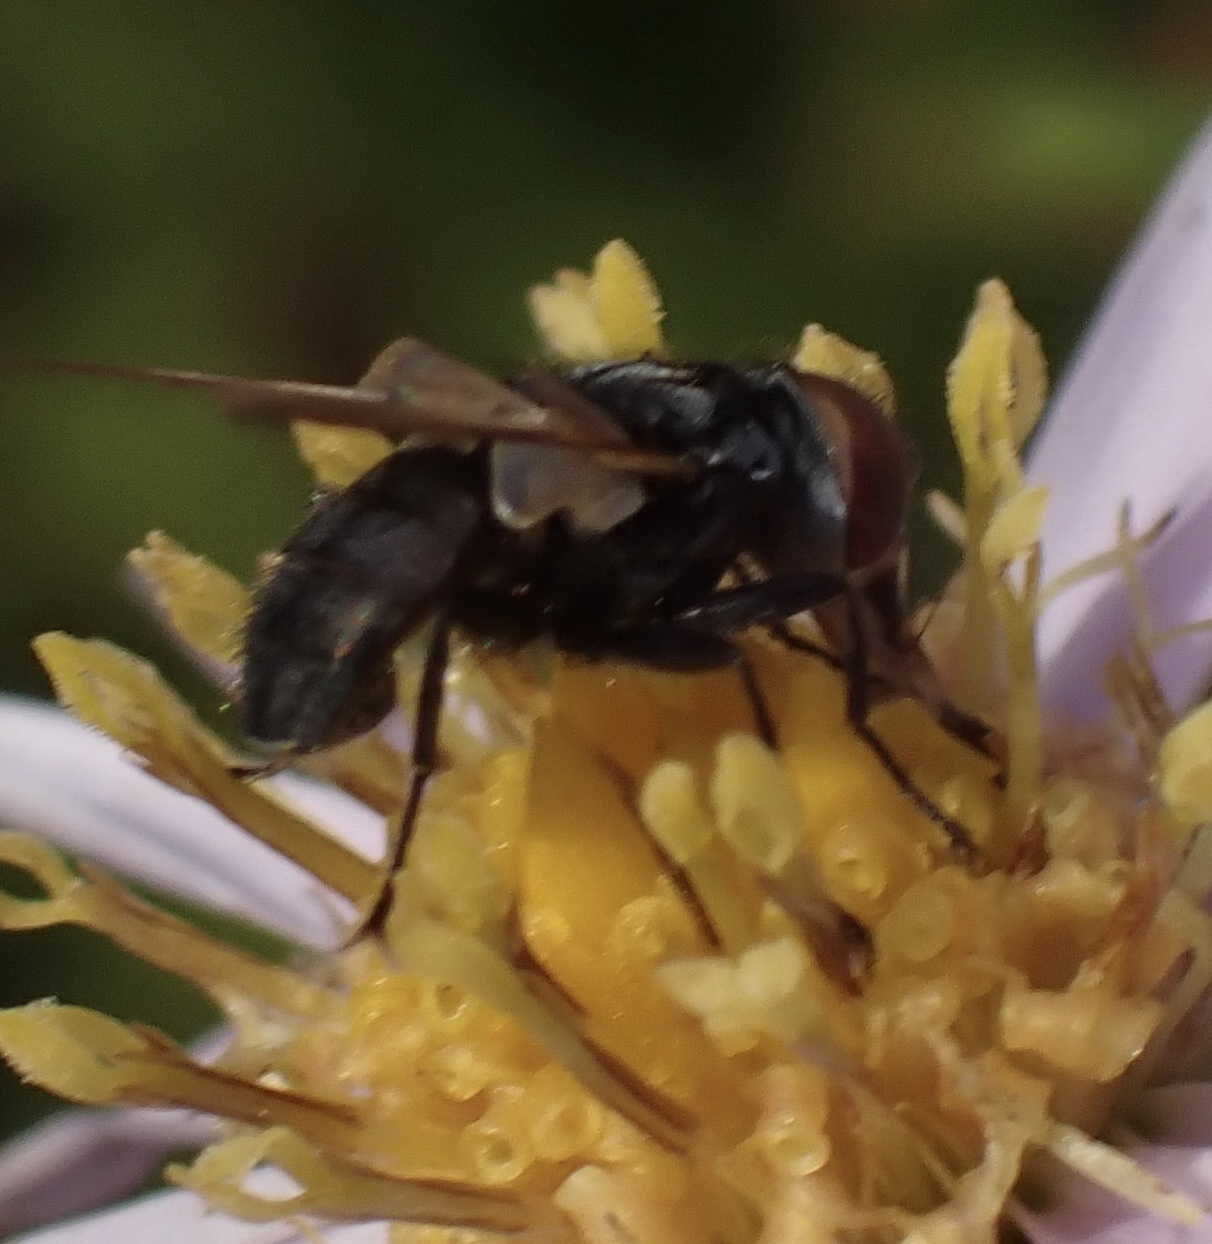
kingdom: Animalia
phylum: Arthropoda
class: Insecta
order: Diptera
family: Tachinidae
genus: Phasia
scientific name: Phasia obesa
